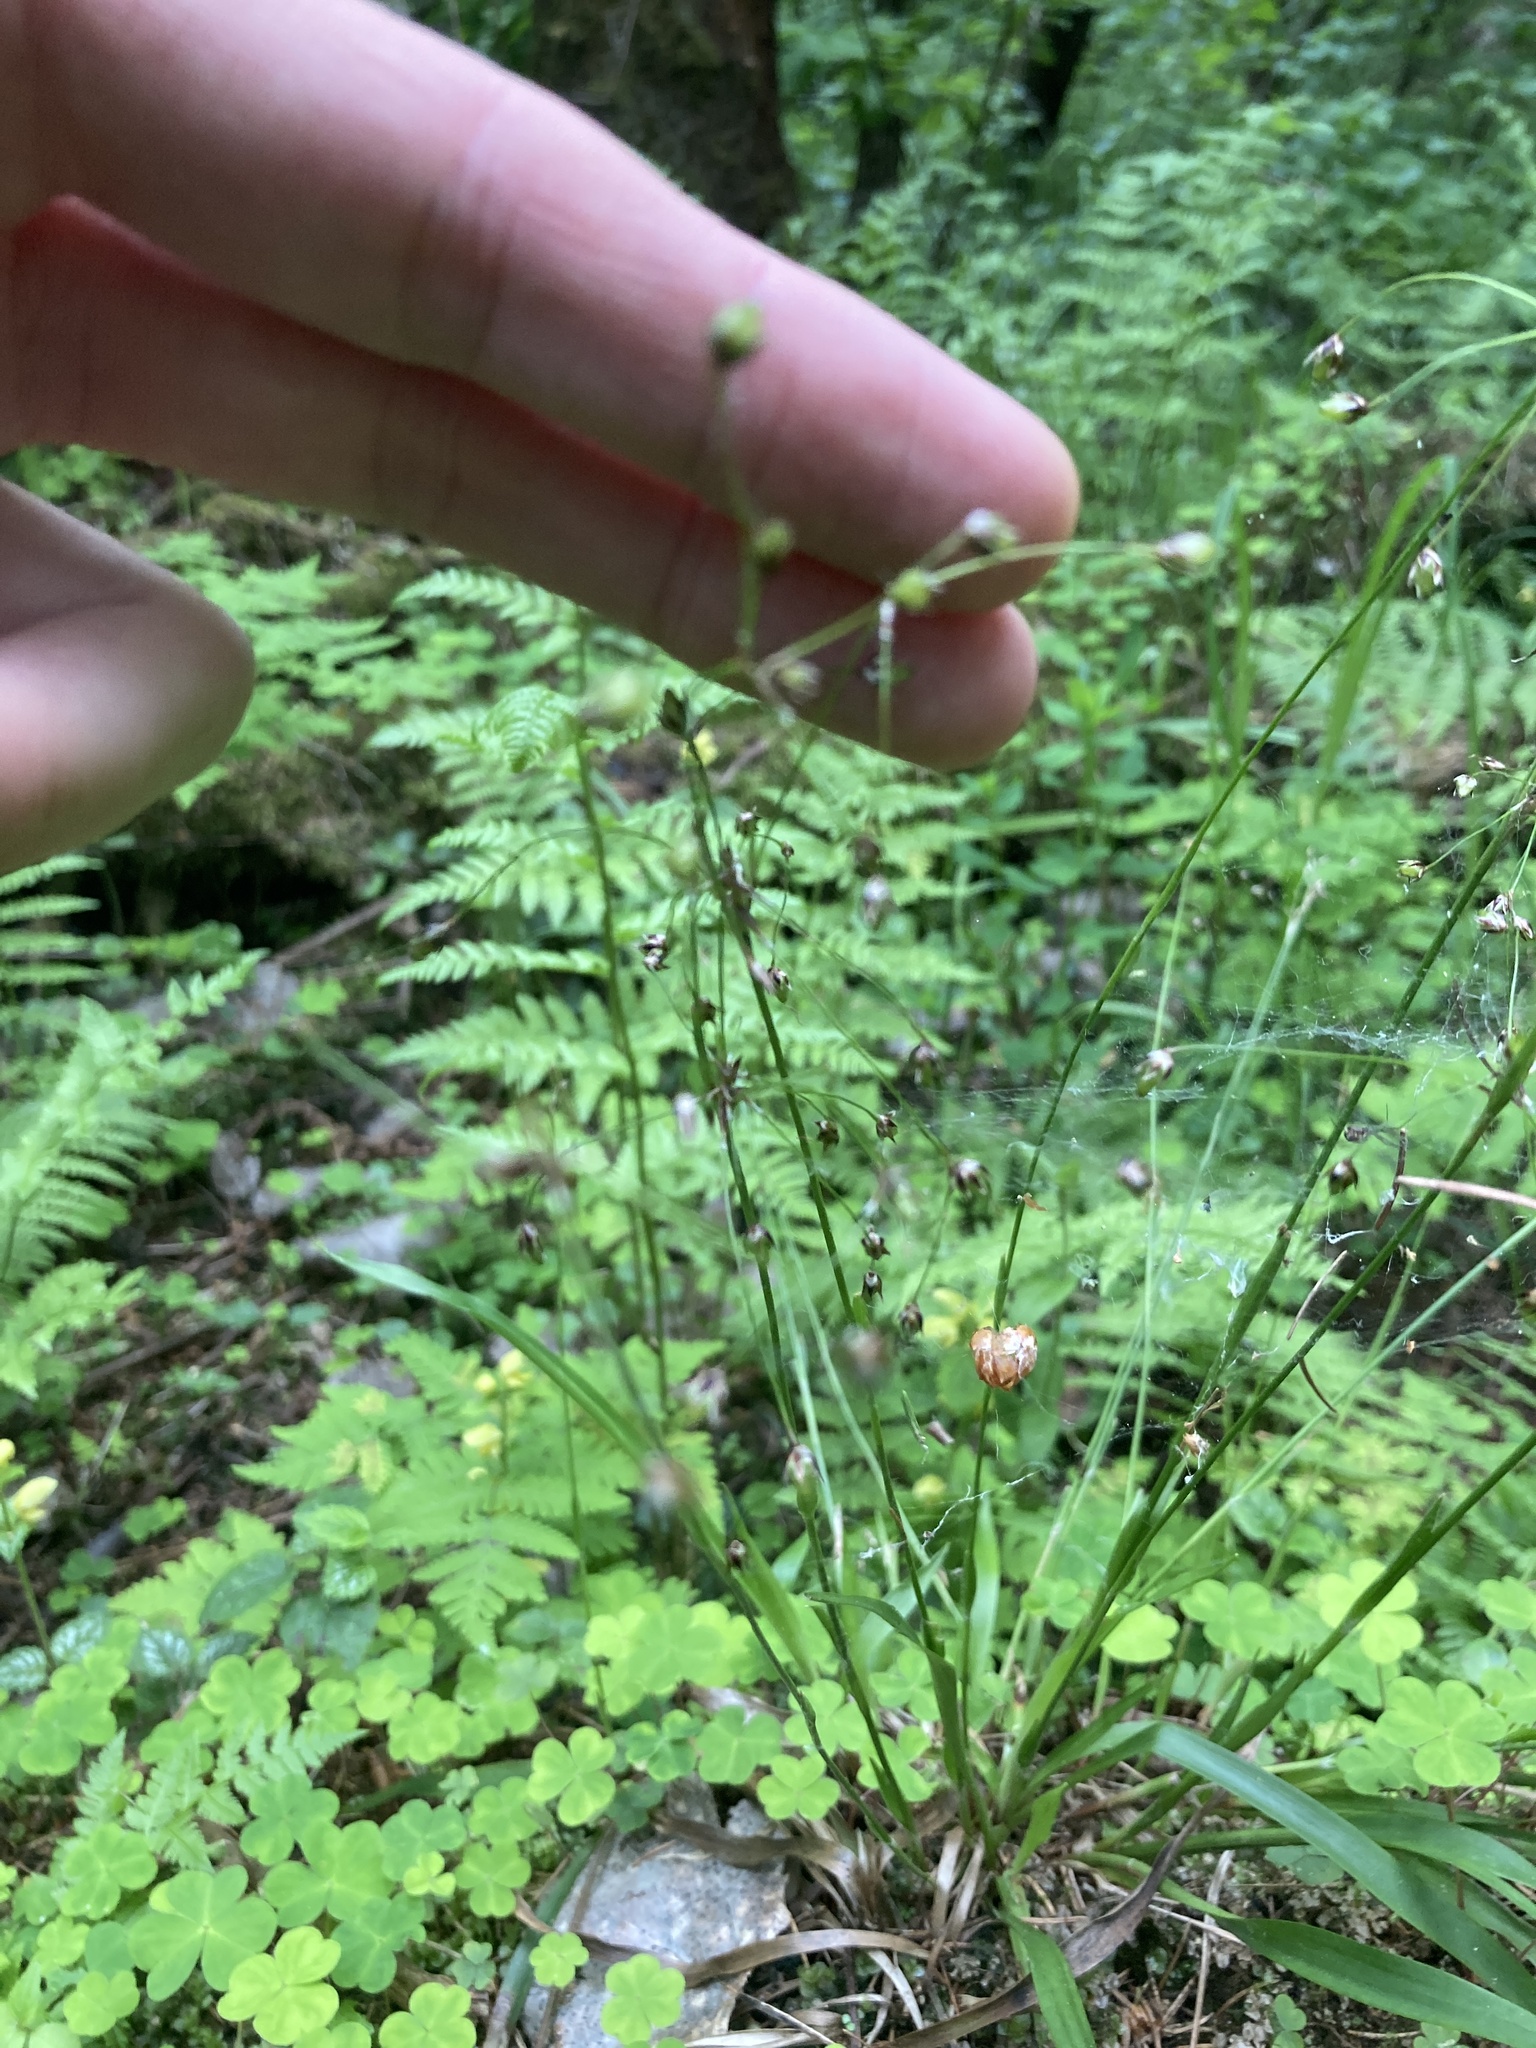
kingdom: Plantae
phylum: Tracheophyta
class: Liliopsida
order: Poales
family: Juncaceae
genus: Luzula
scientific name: Luzula pilosa
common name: Hairy wood-rush
